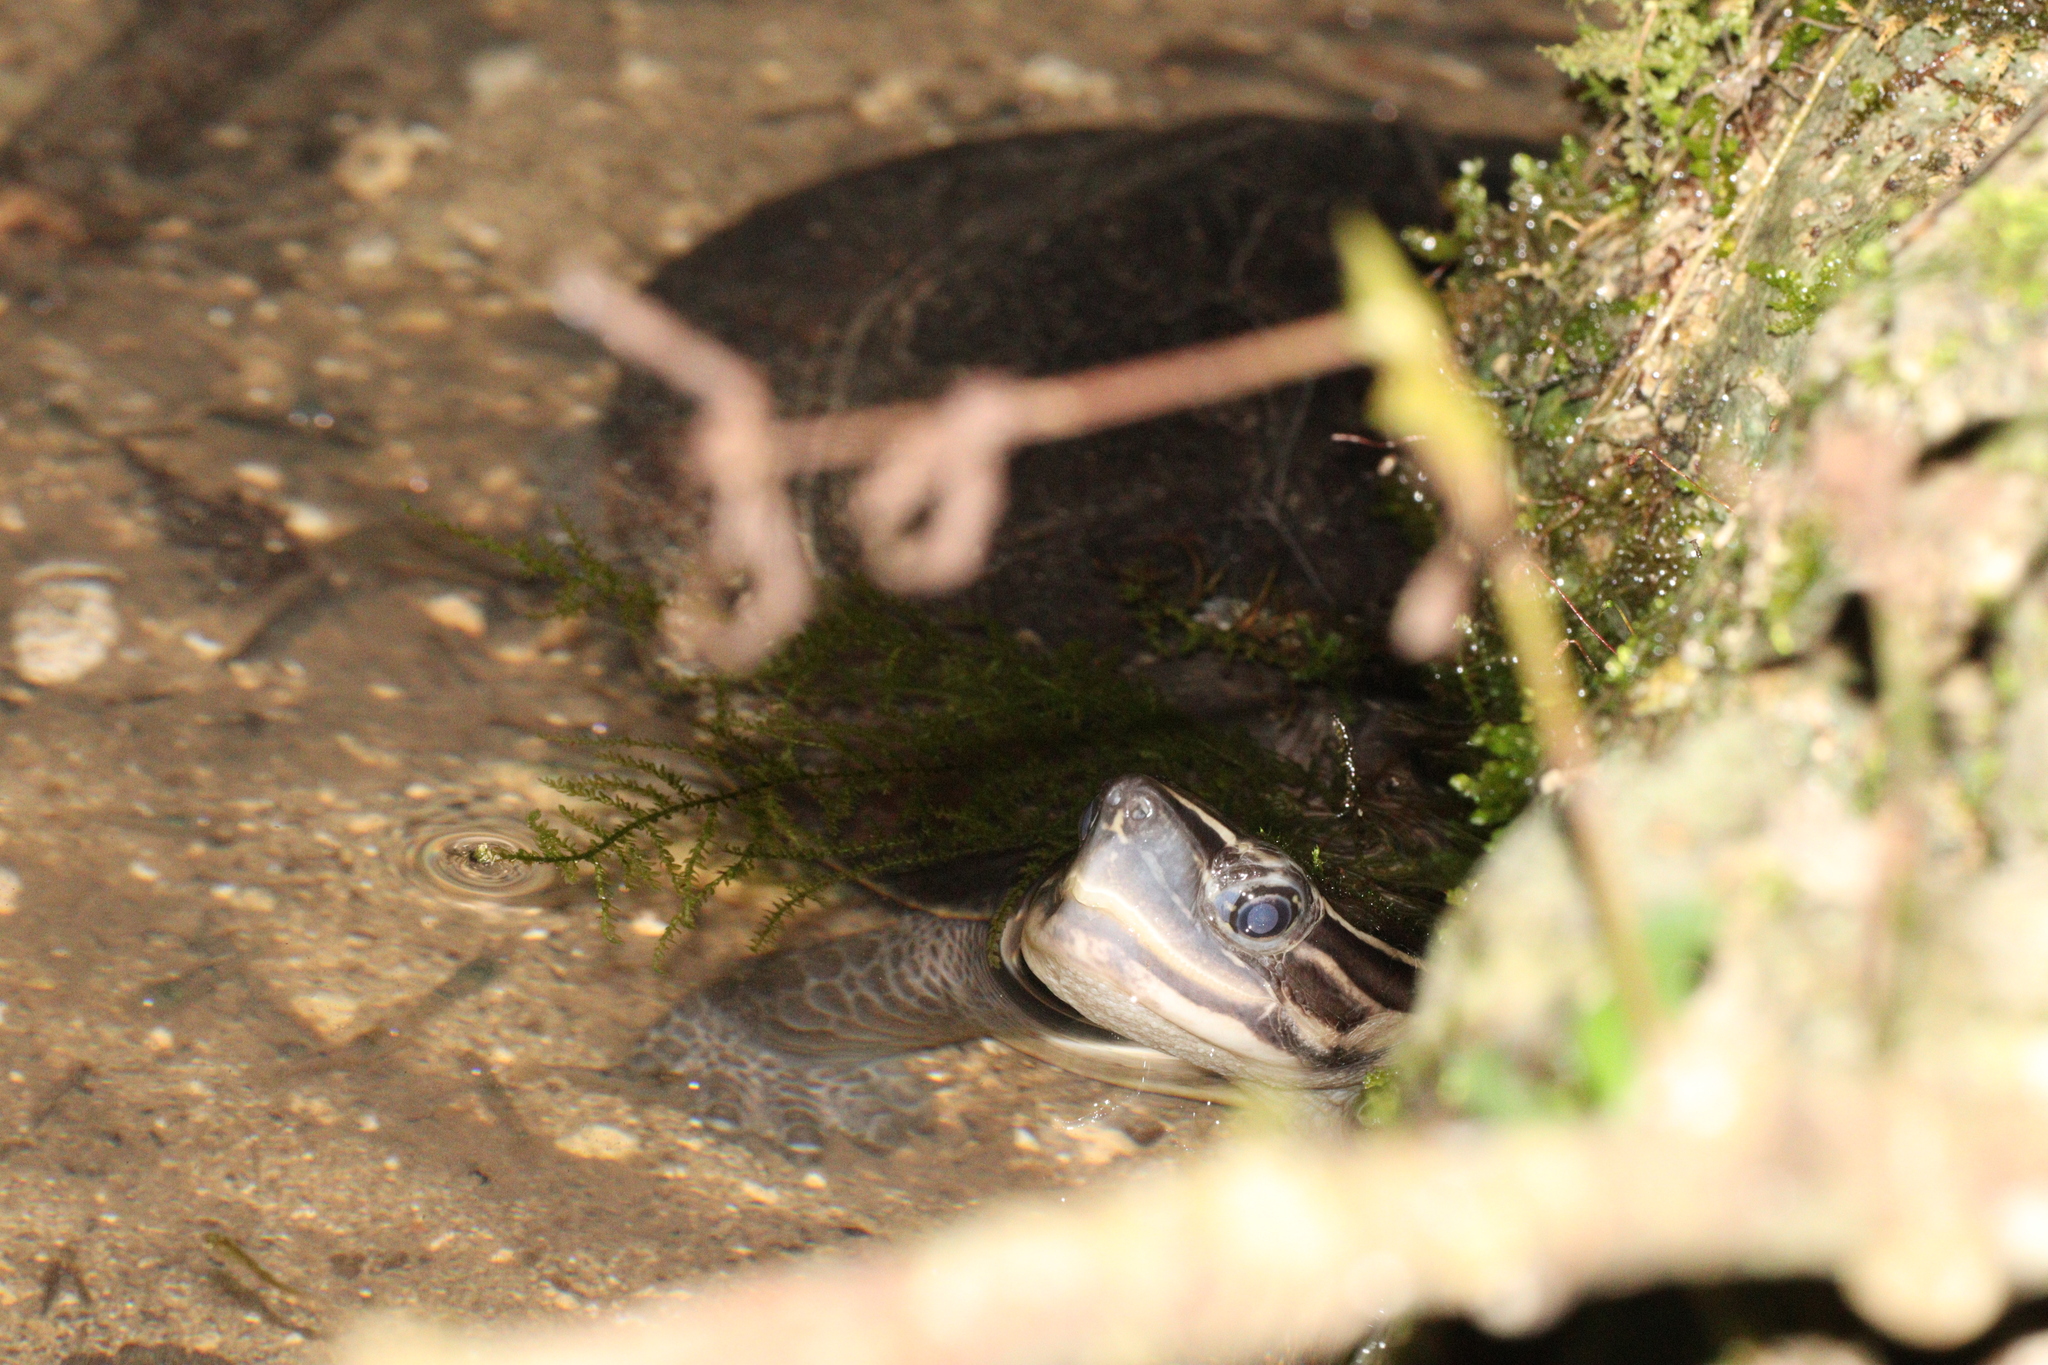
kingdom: Animalia
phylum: Chordata
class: Testudines
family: Geoemydidae
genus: Cuora
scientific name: Cuora
